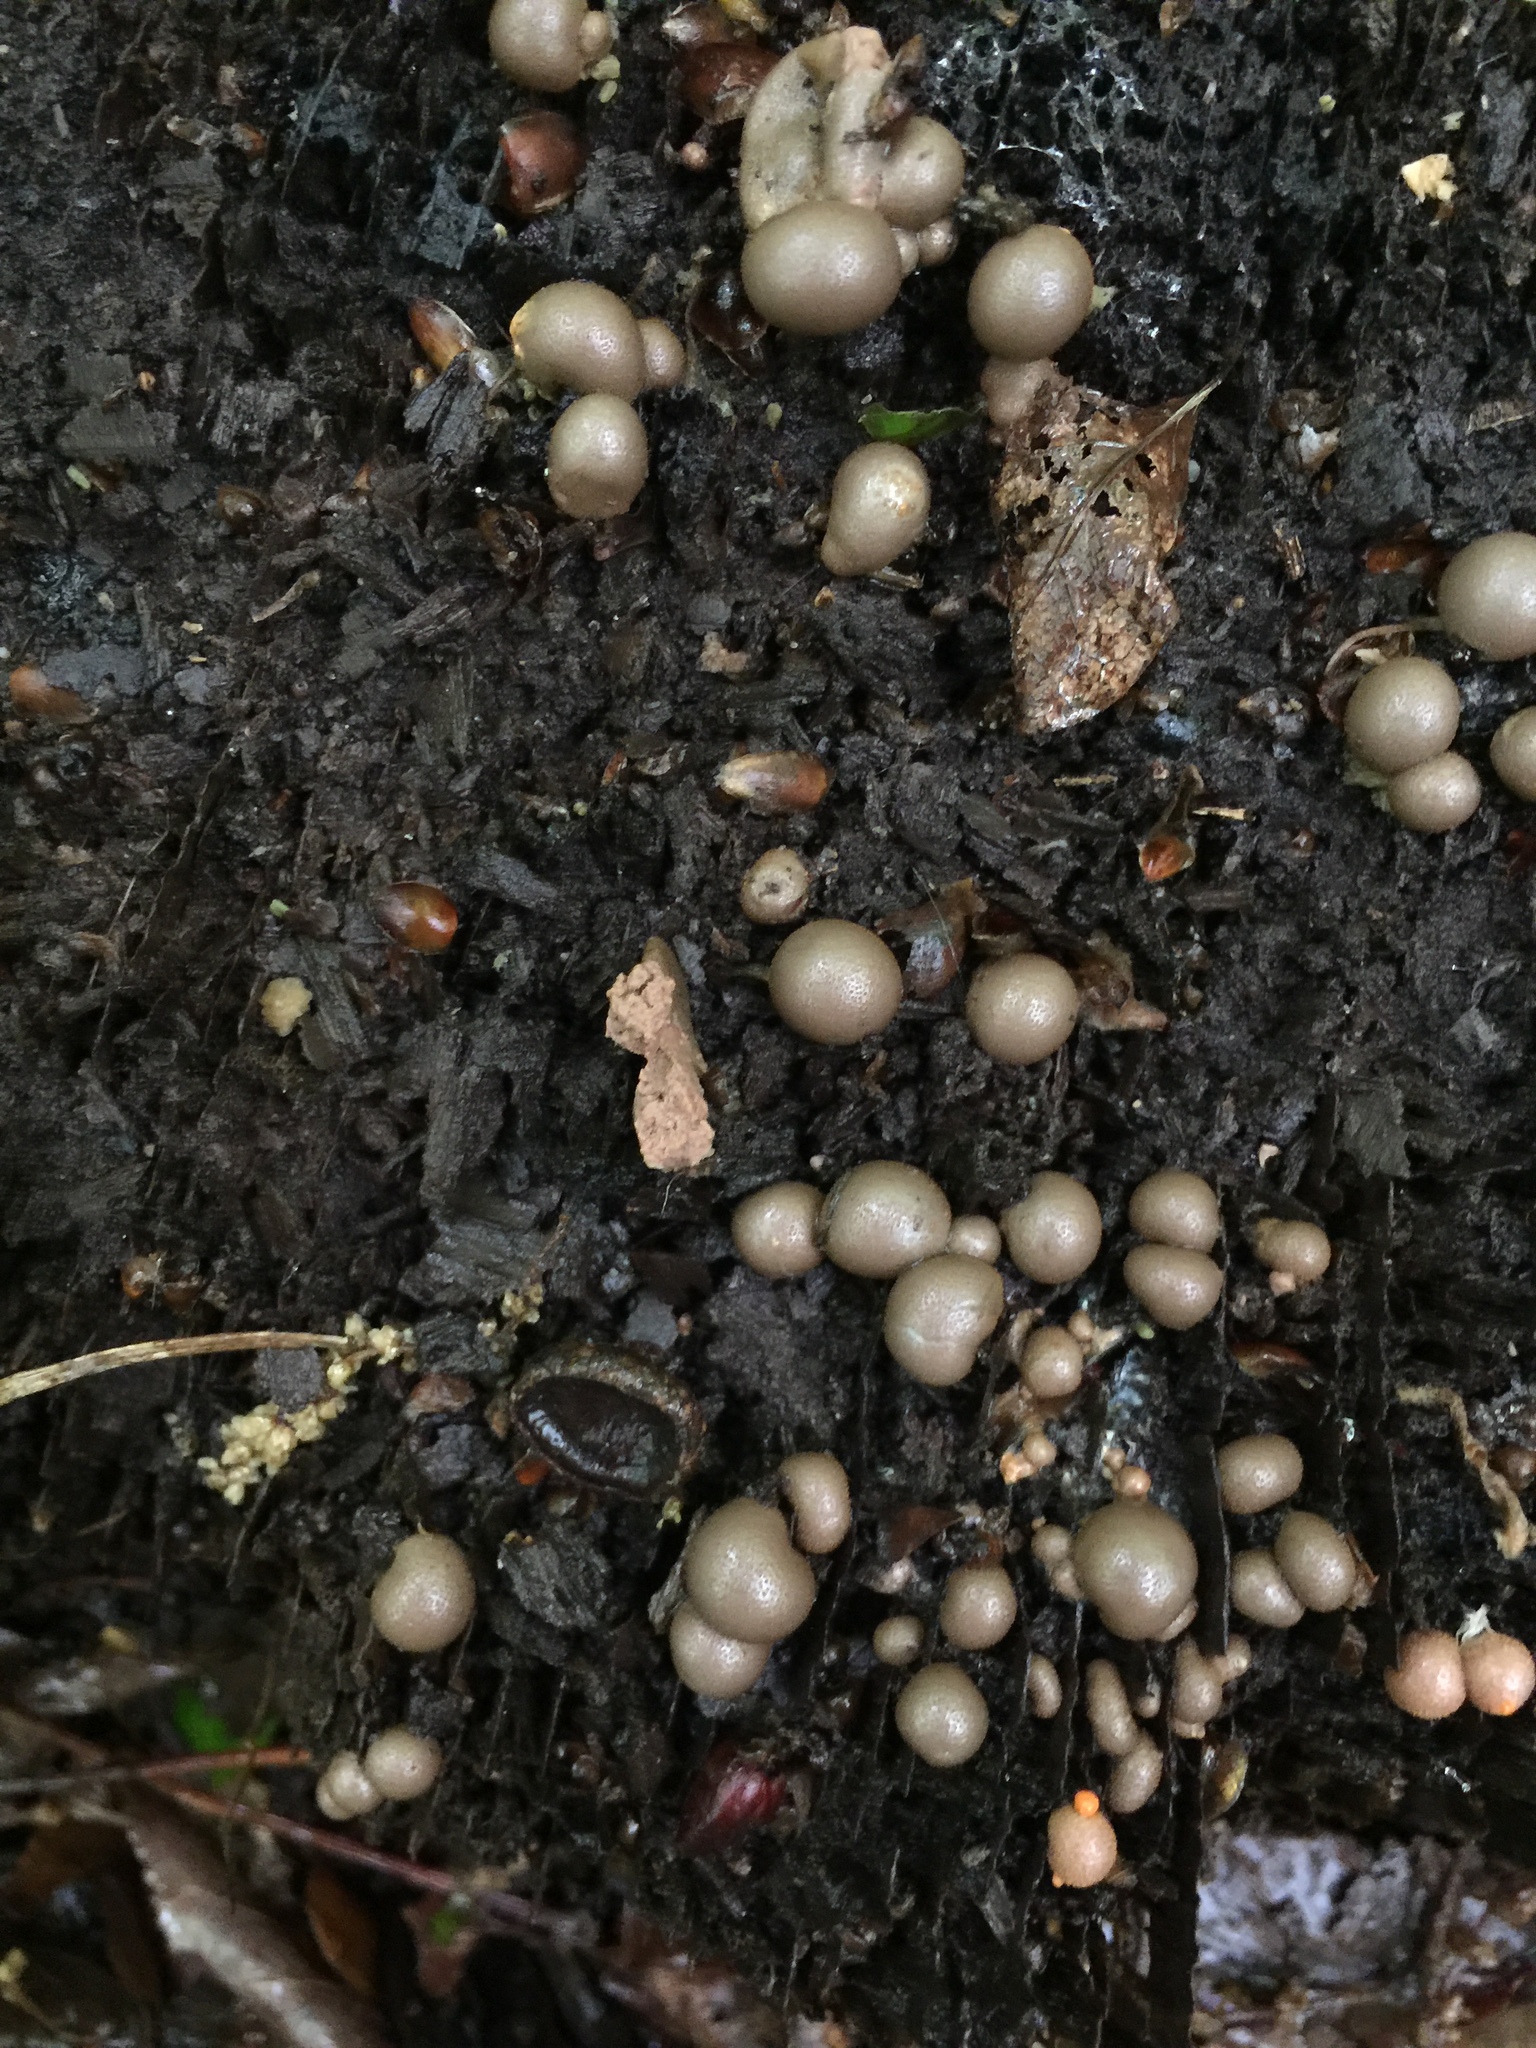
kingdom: Protozoa
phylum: Mycetozoa
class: Myxomycetes
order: Cribrariales
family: Tubiferaceae
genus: Lycogala
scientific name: Lycogala epidendrum
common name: Wolf's milk
